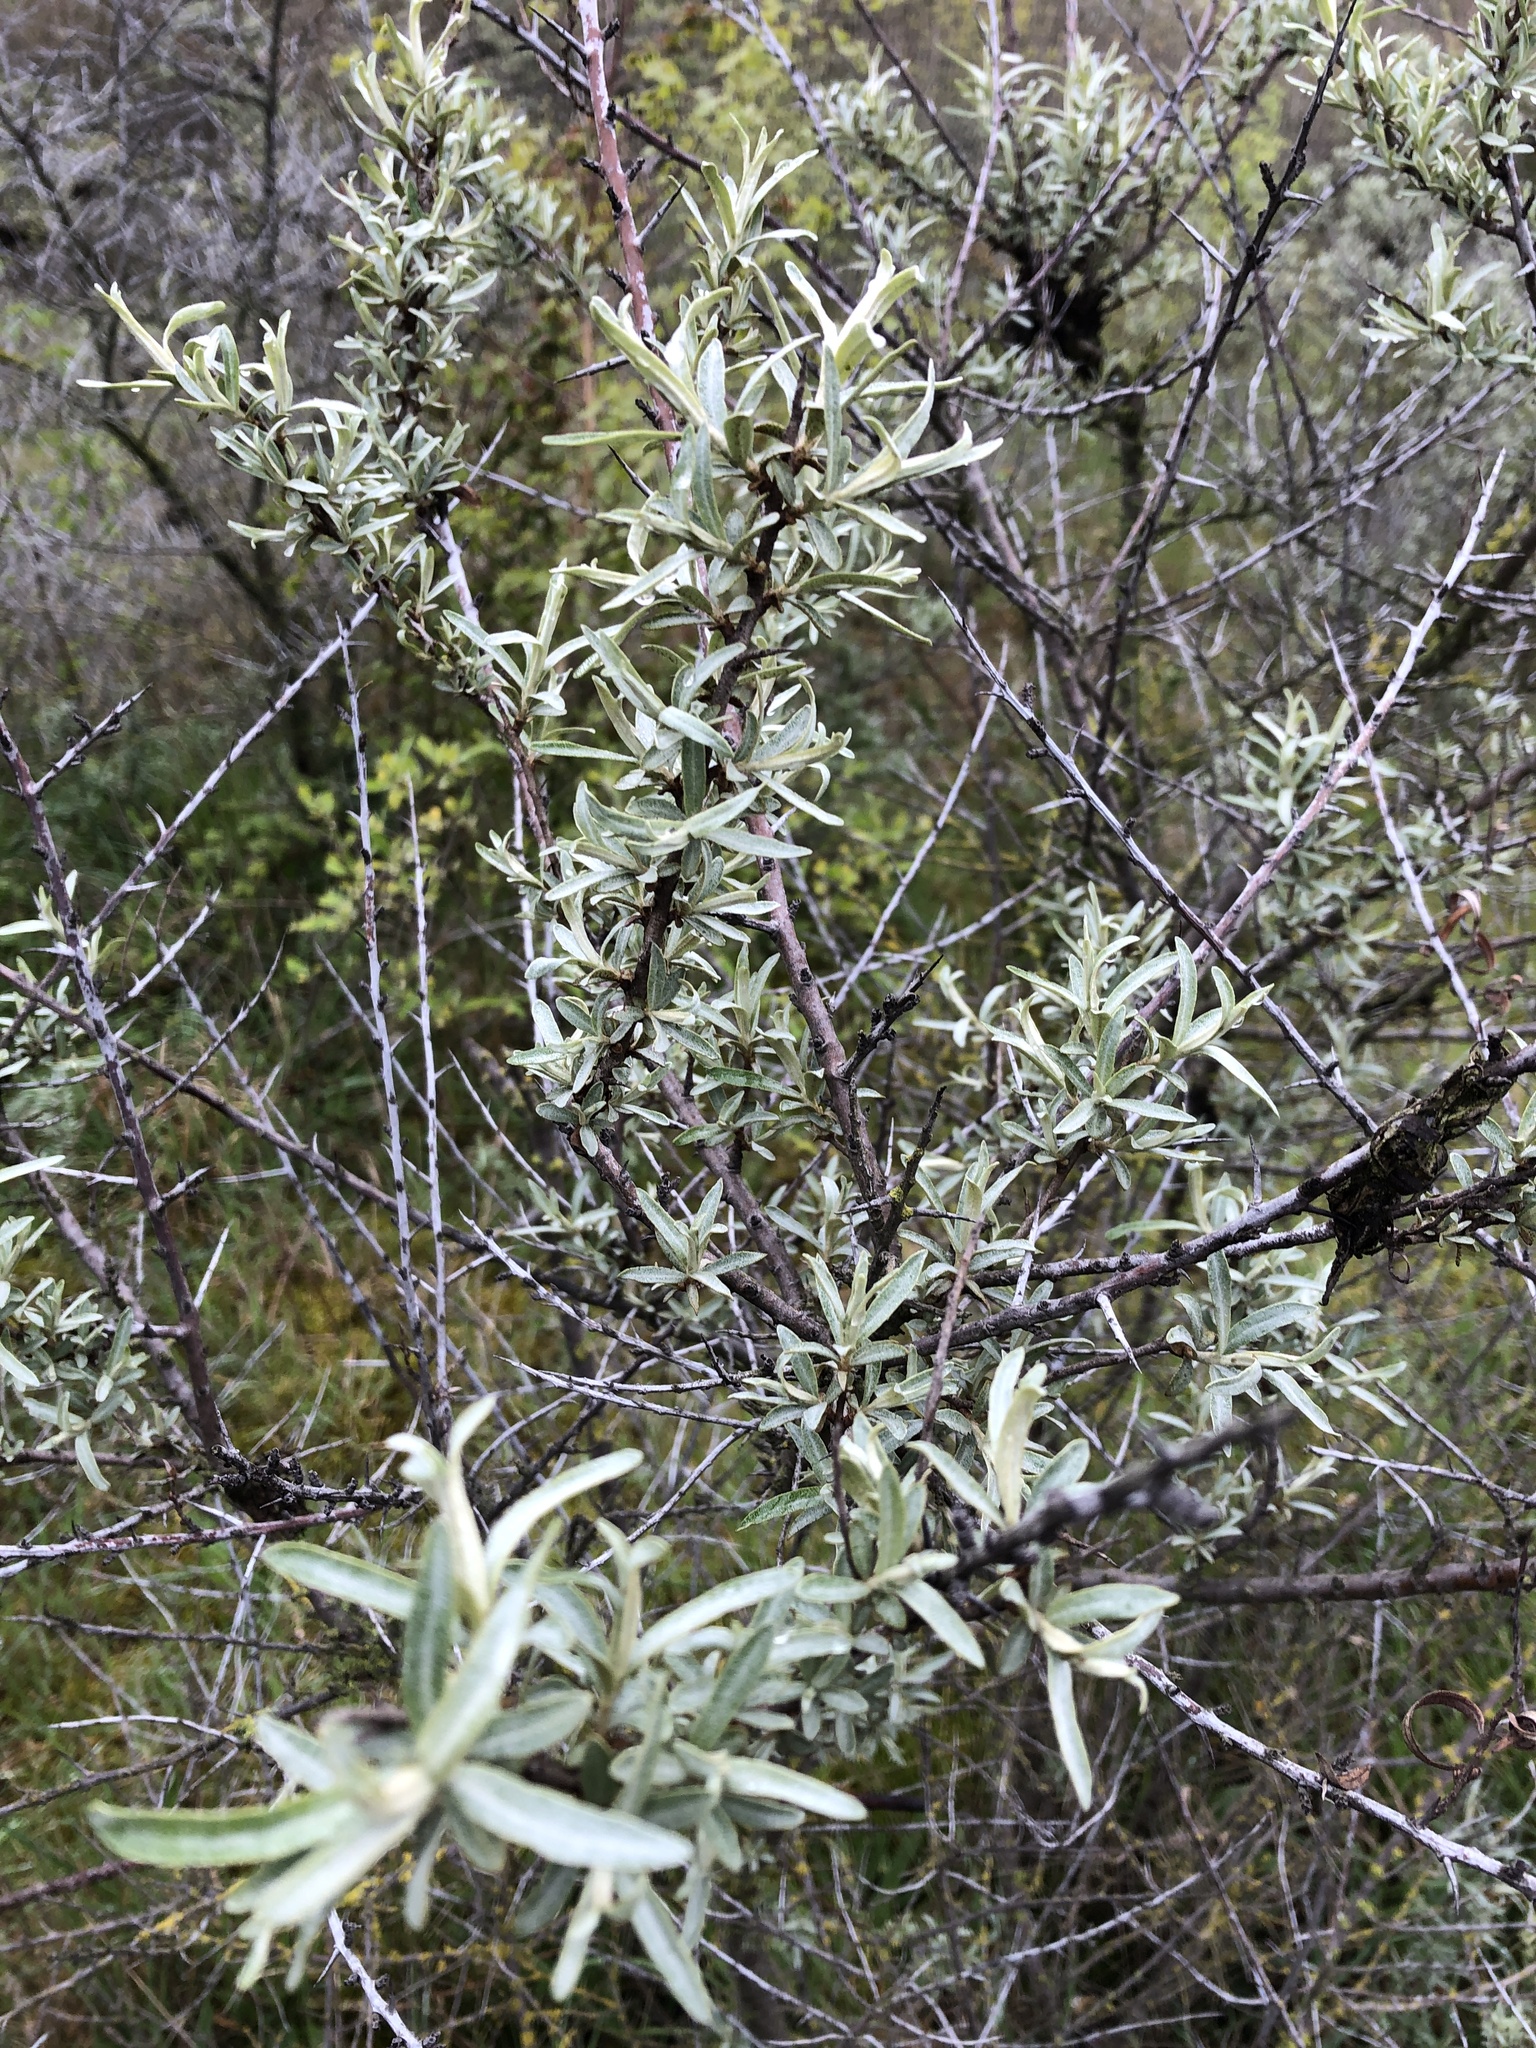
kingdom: Plantae
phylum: Tracheophyta
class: Magnoliopsida
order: Rosales
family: Elaeagnaceae
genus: Hippophae
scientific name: Hippophae rhamnoides
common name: Sea-buckthorn
